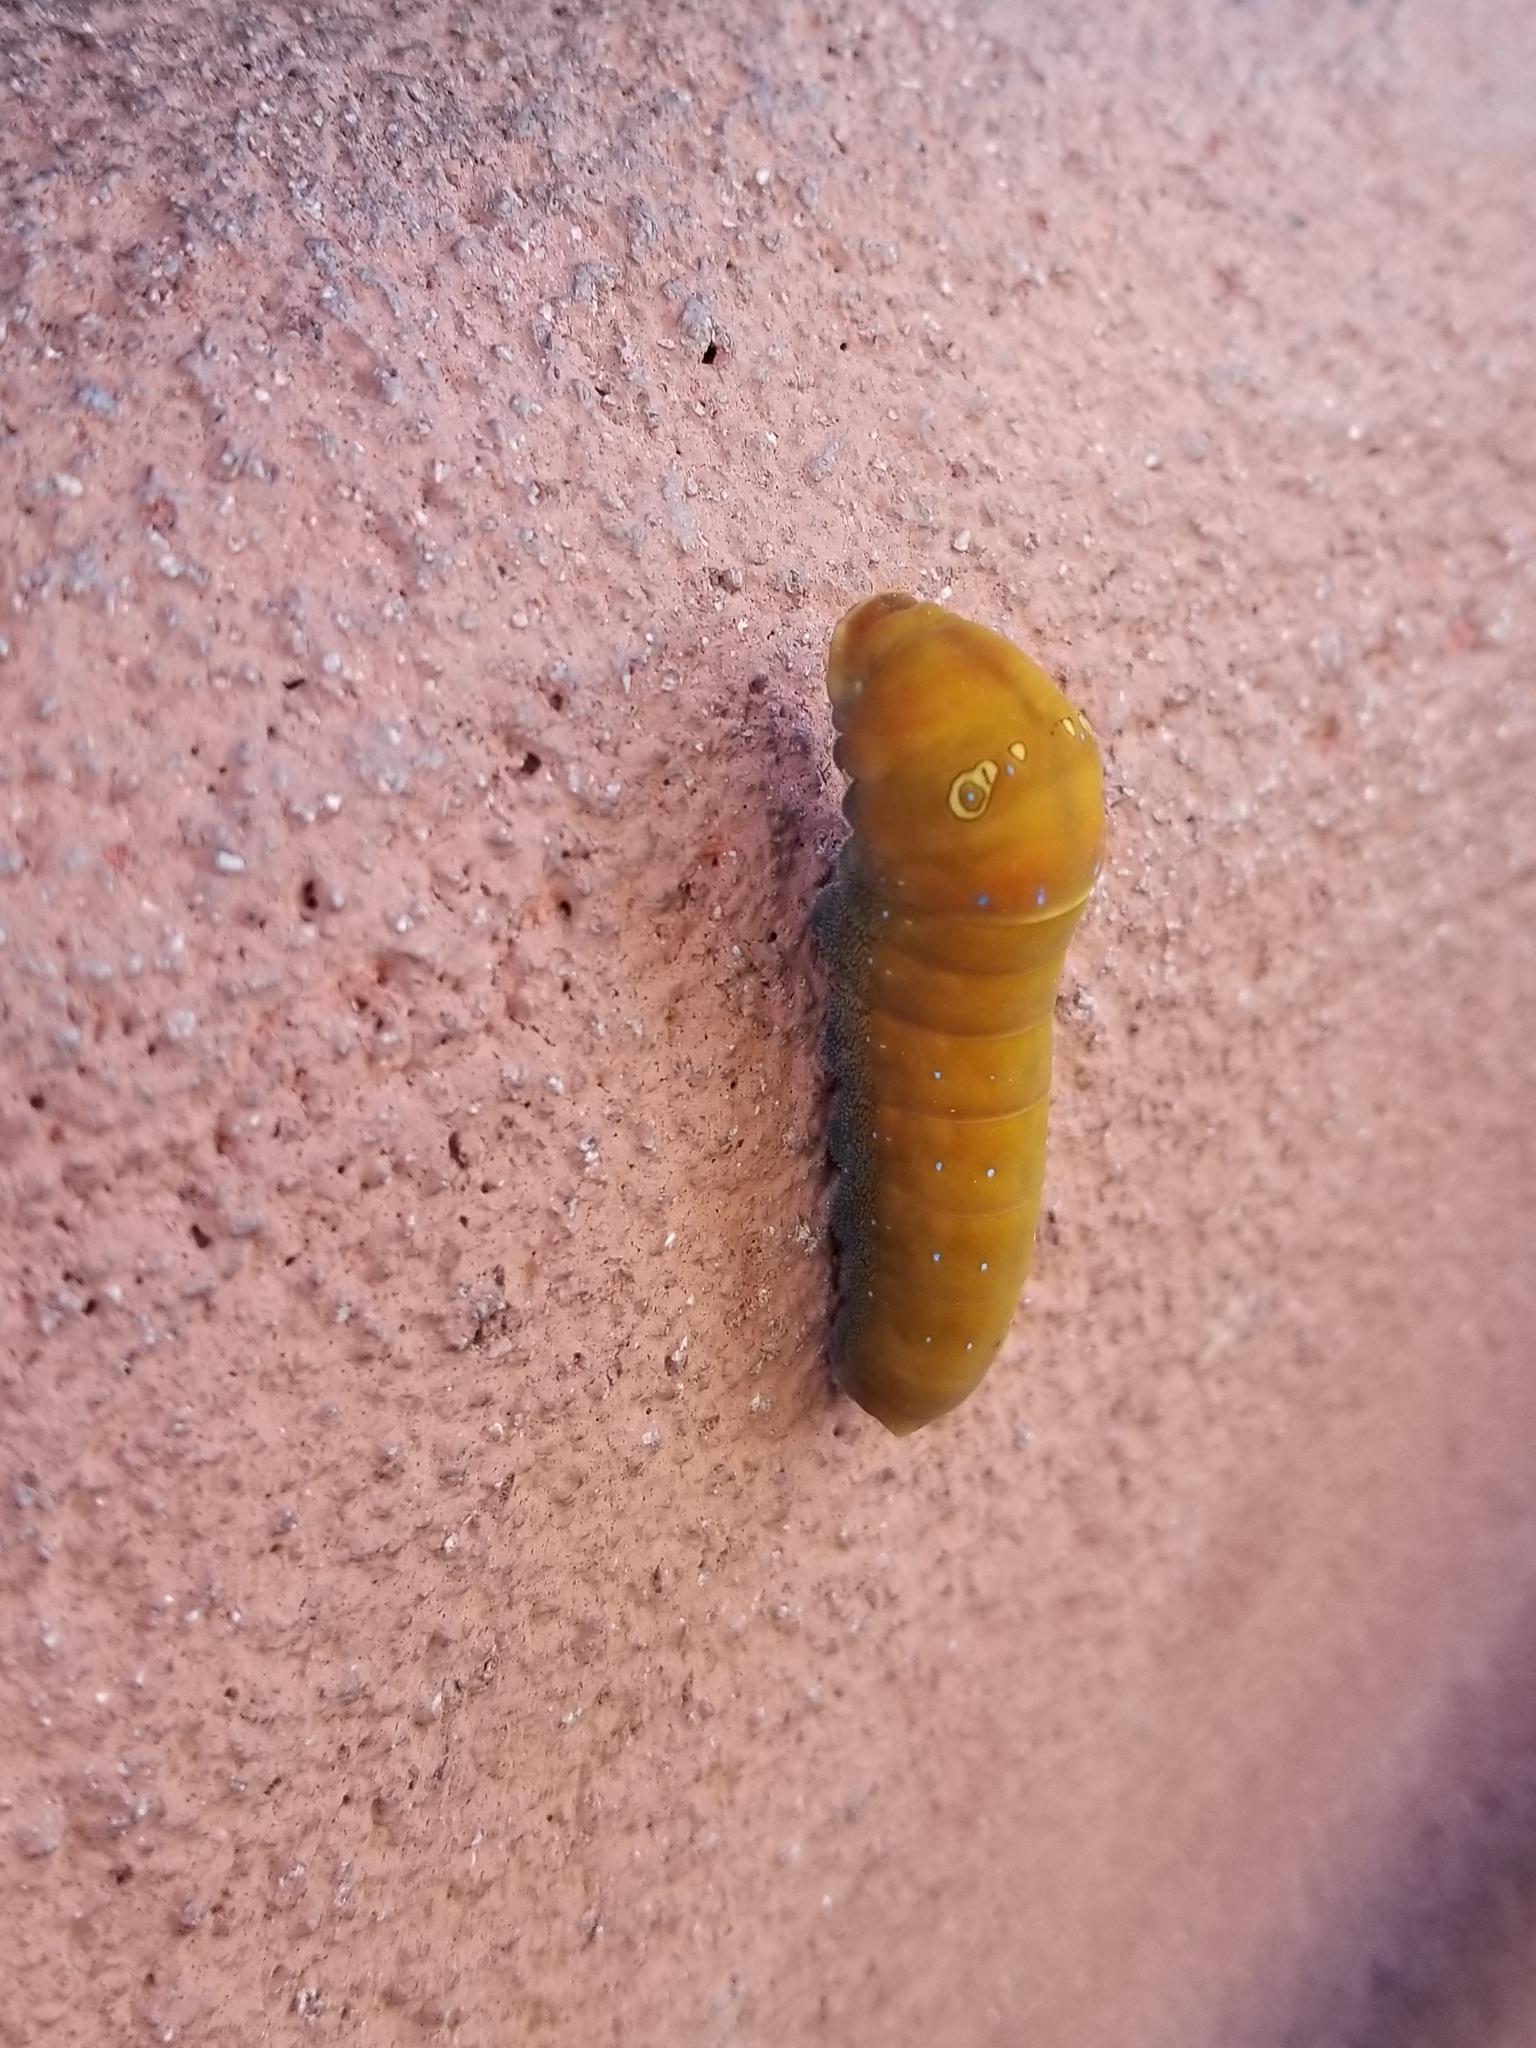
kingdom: Animalia
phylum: Arthropoda
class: Insecta
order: Lepidoptera
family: Papilionidae
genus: Papilio
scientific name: Papilio multicaudata
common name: Two-tailed tiger swallowtail
